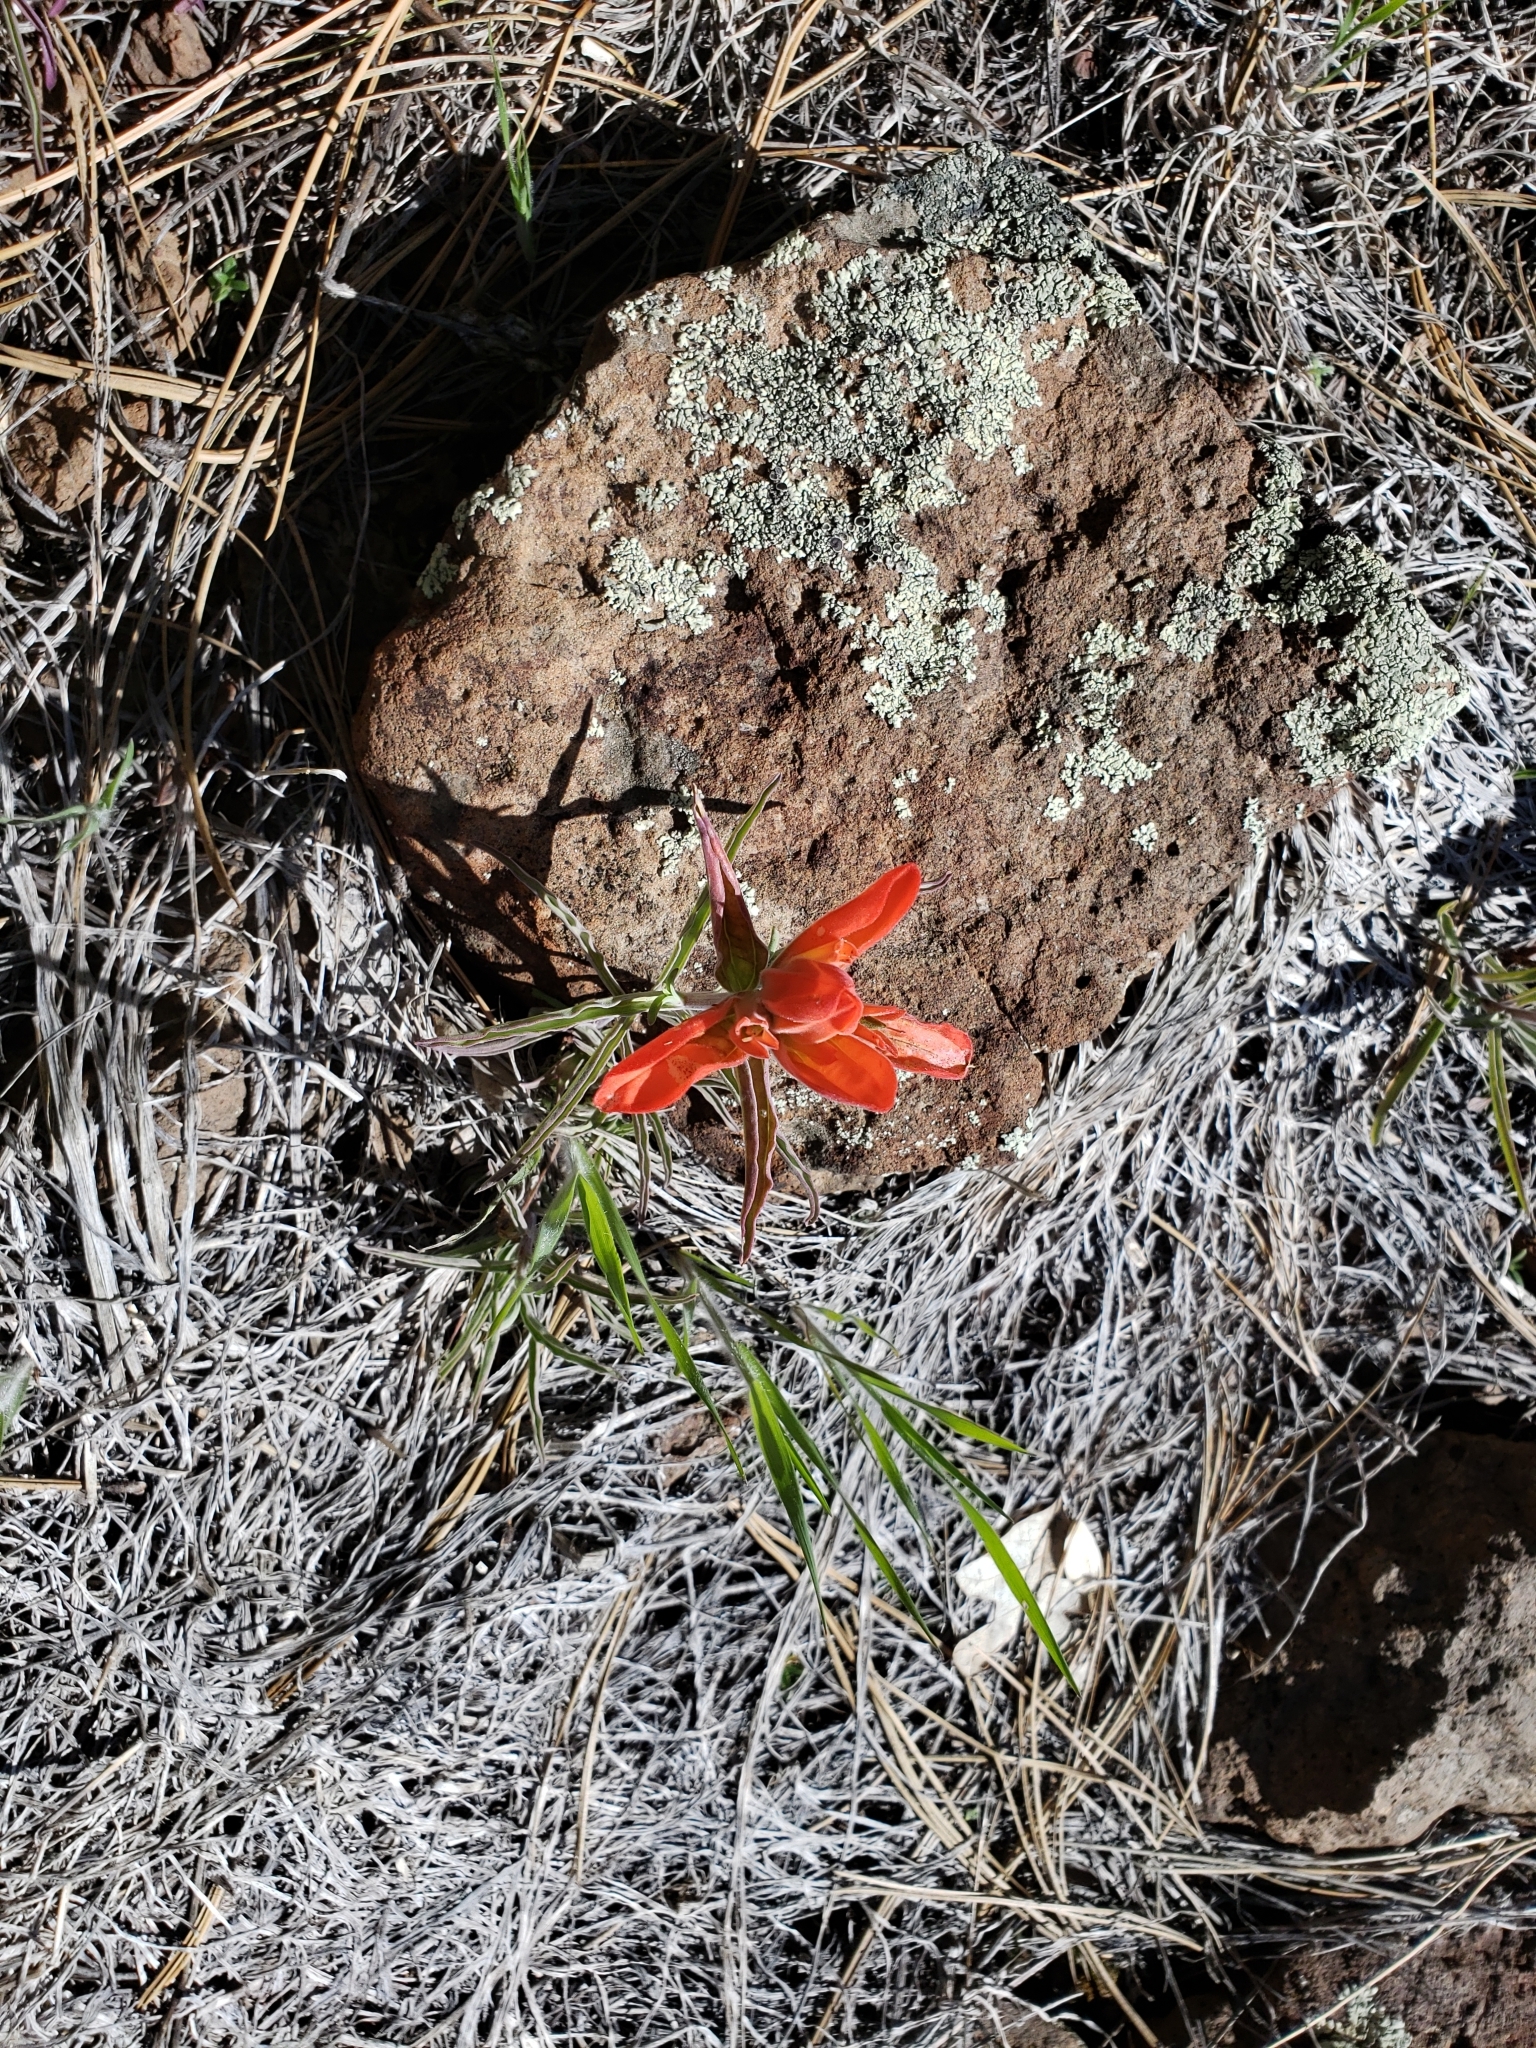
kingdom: Plantae
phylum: Tracheophyta
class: Magnoliopsida
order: Lamiales
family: Orobanchaceae
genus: Castilleja
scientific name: Castilleja integra
